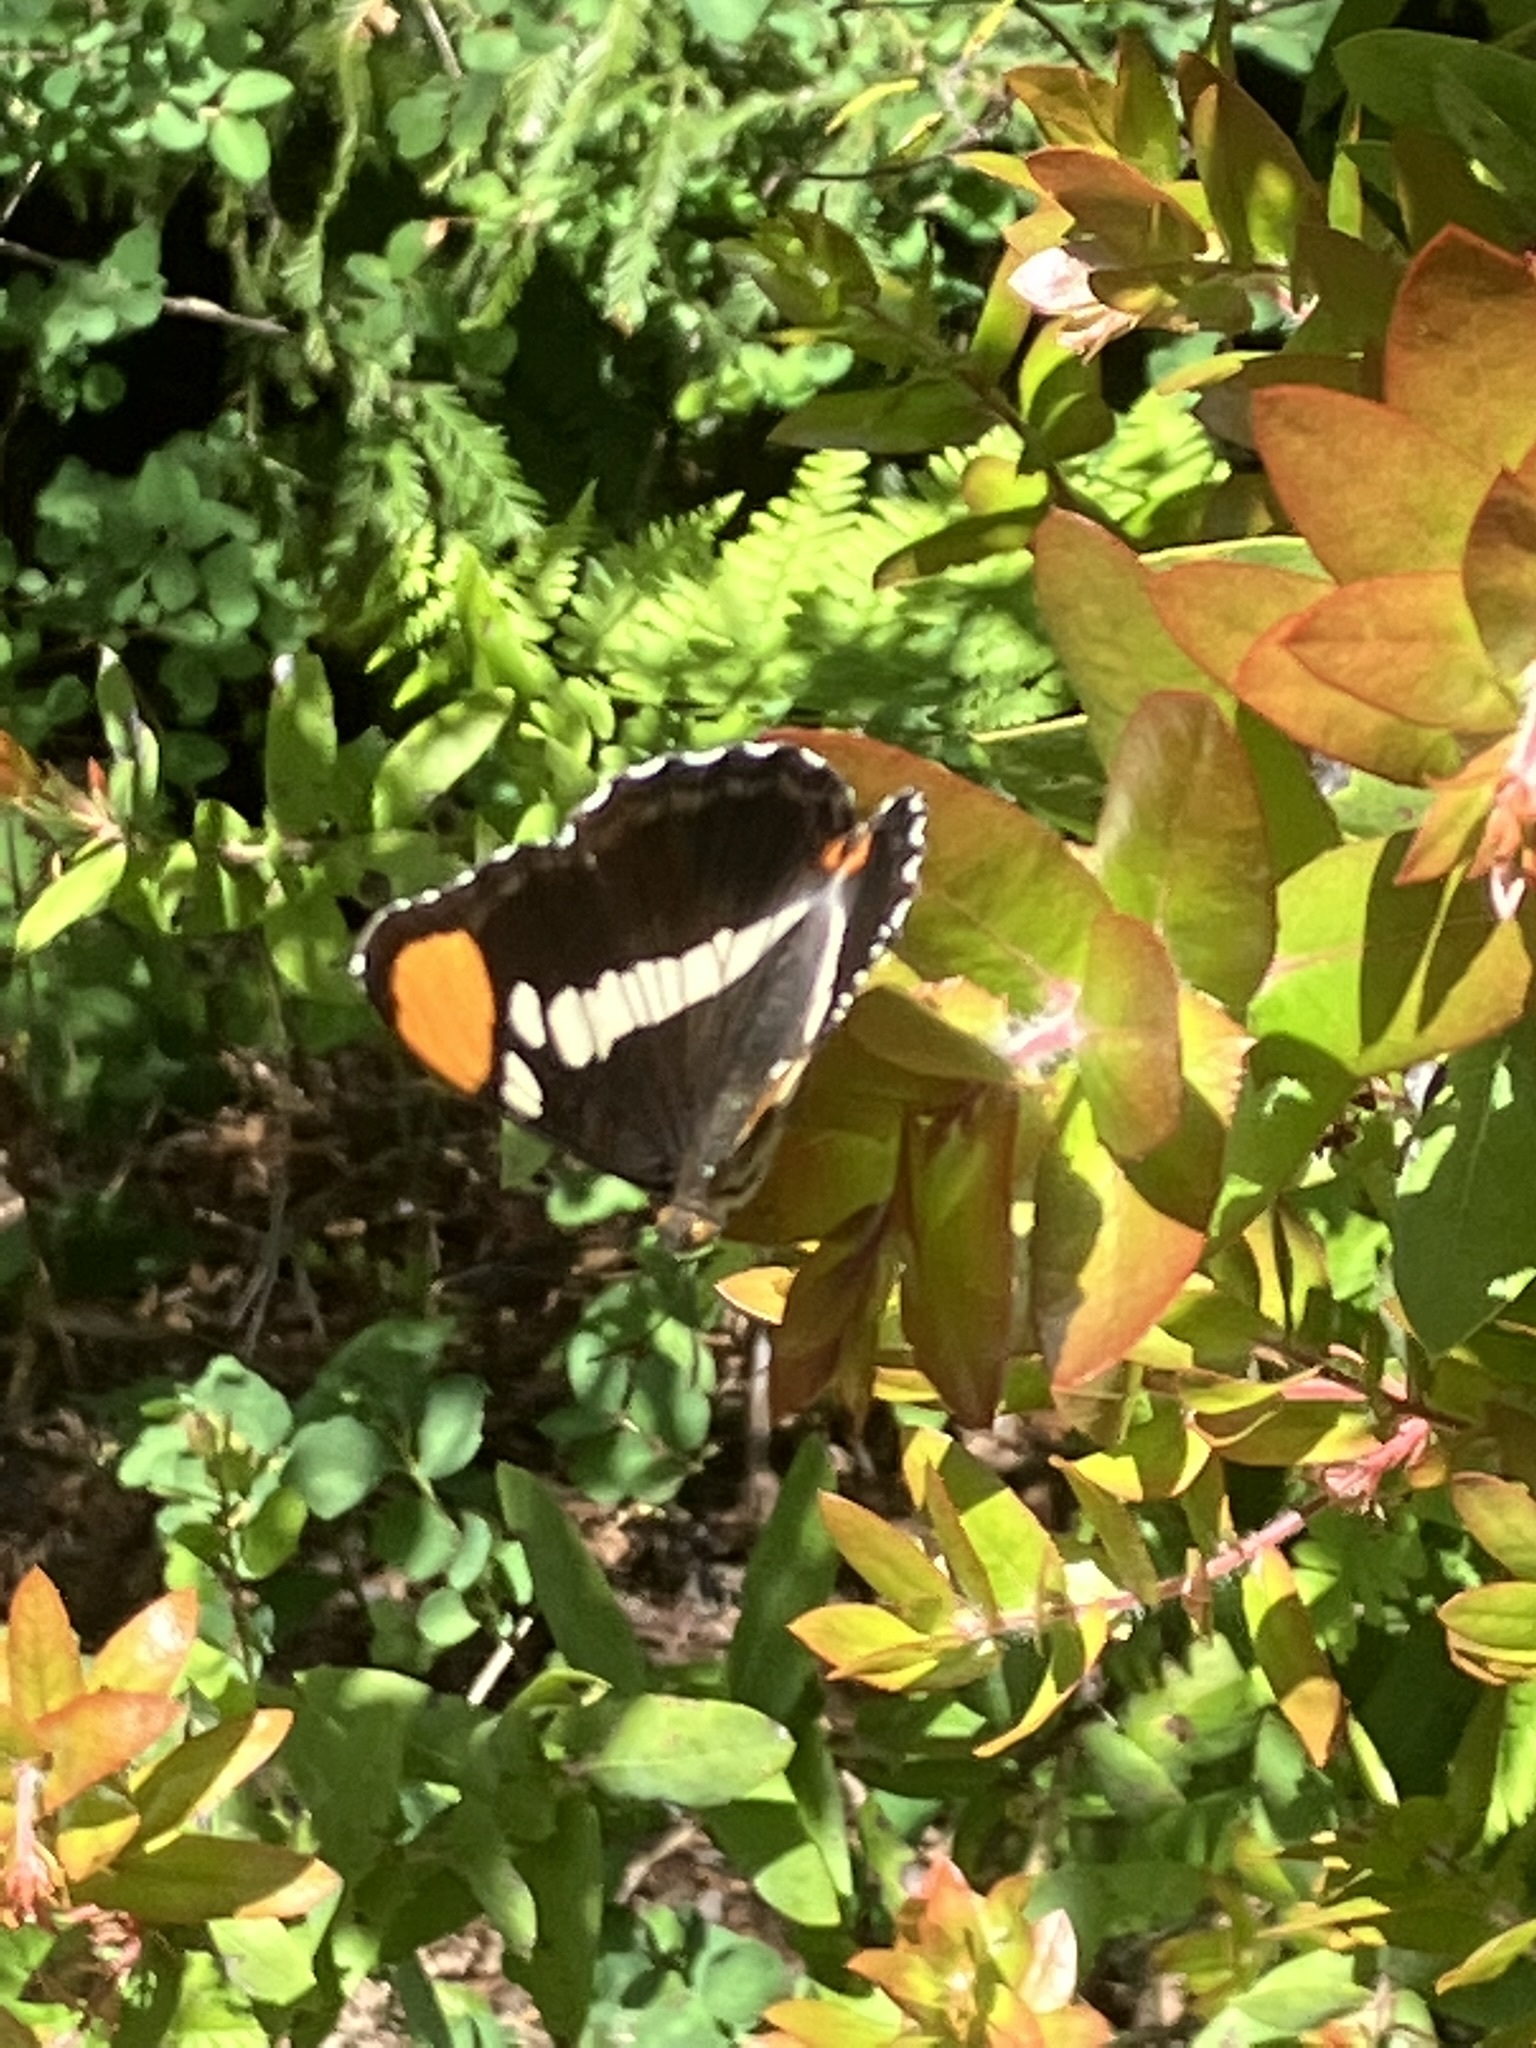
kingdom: Animalia
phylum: Arthropoda
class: Insecta
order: Lepidoptera
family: Nymphalidae
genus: Limenitis
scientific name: Limenitis bredowii
